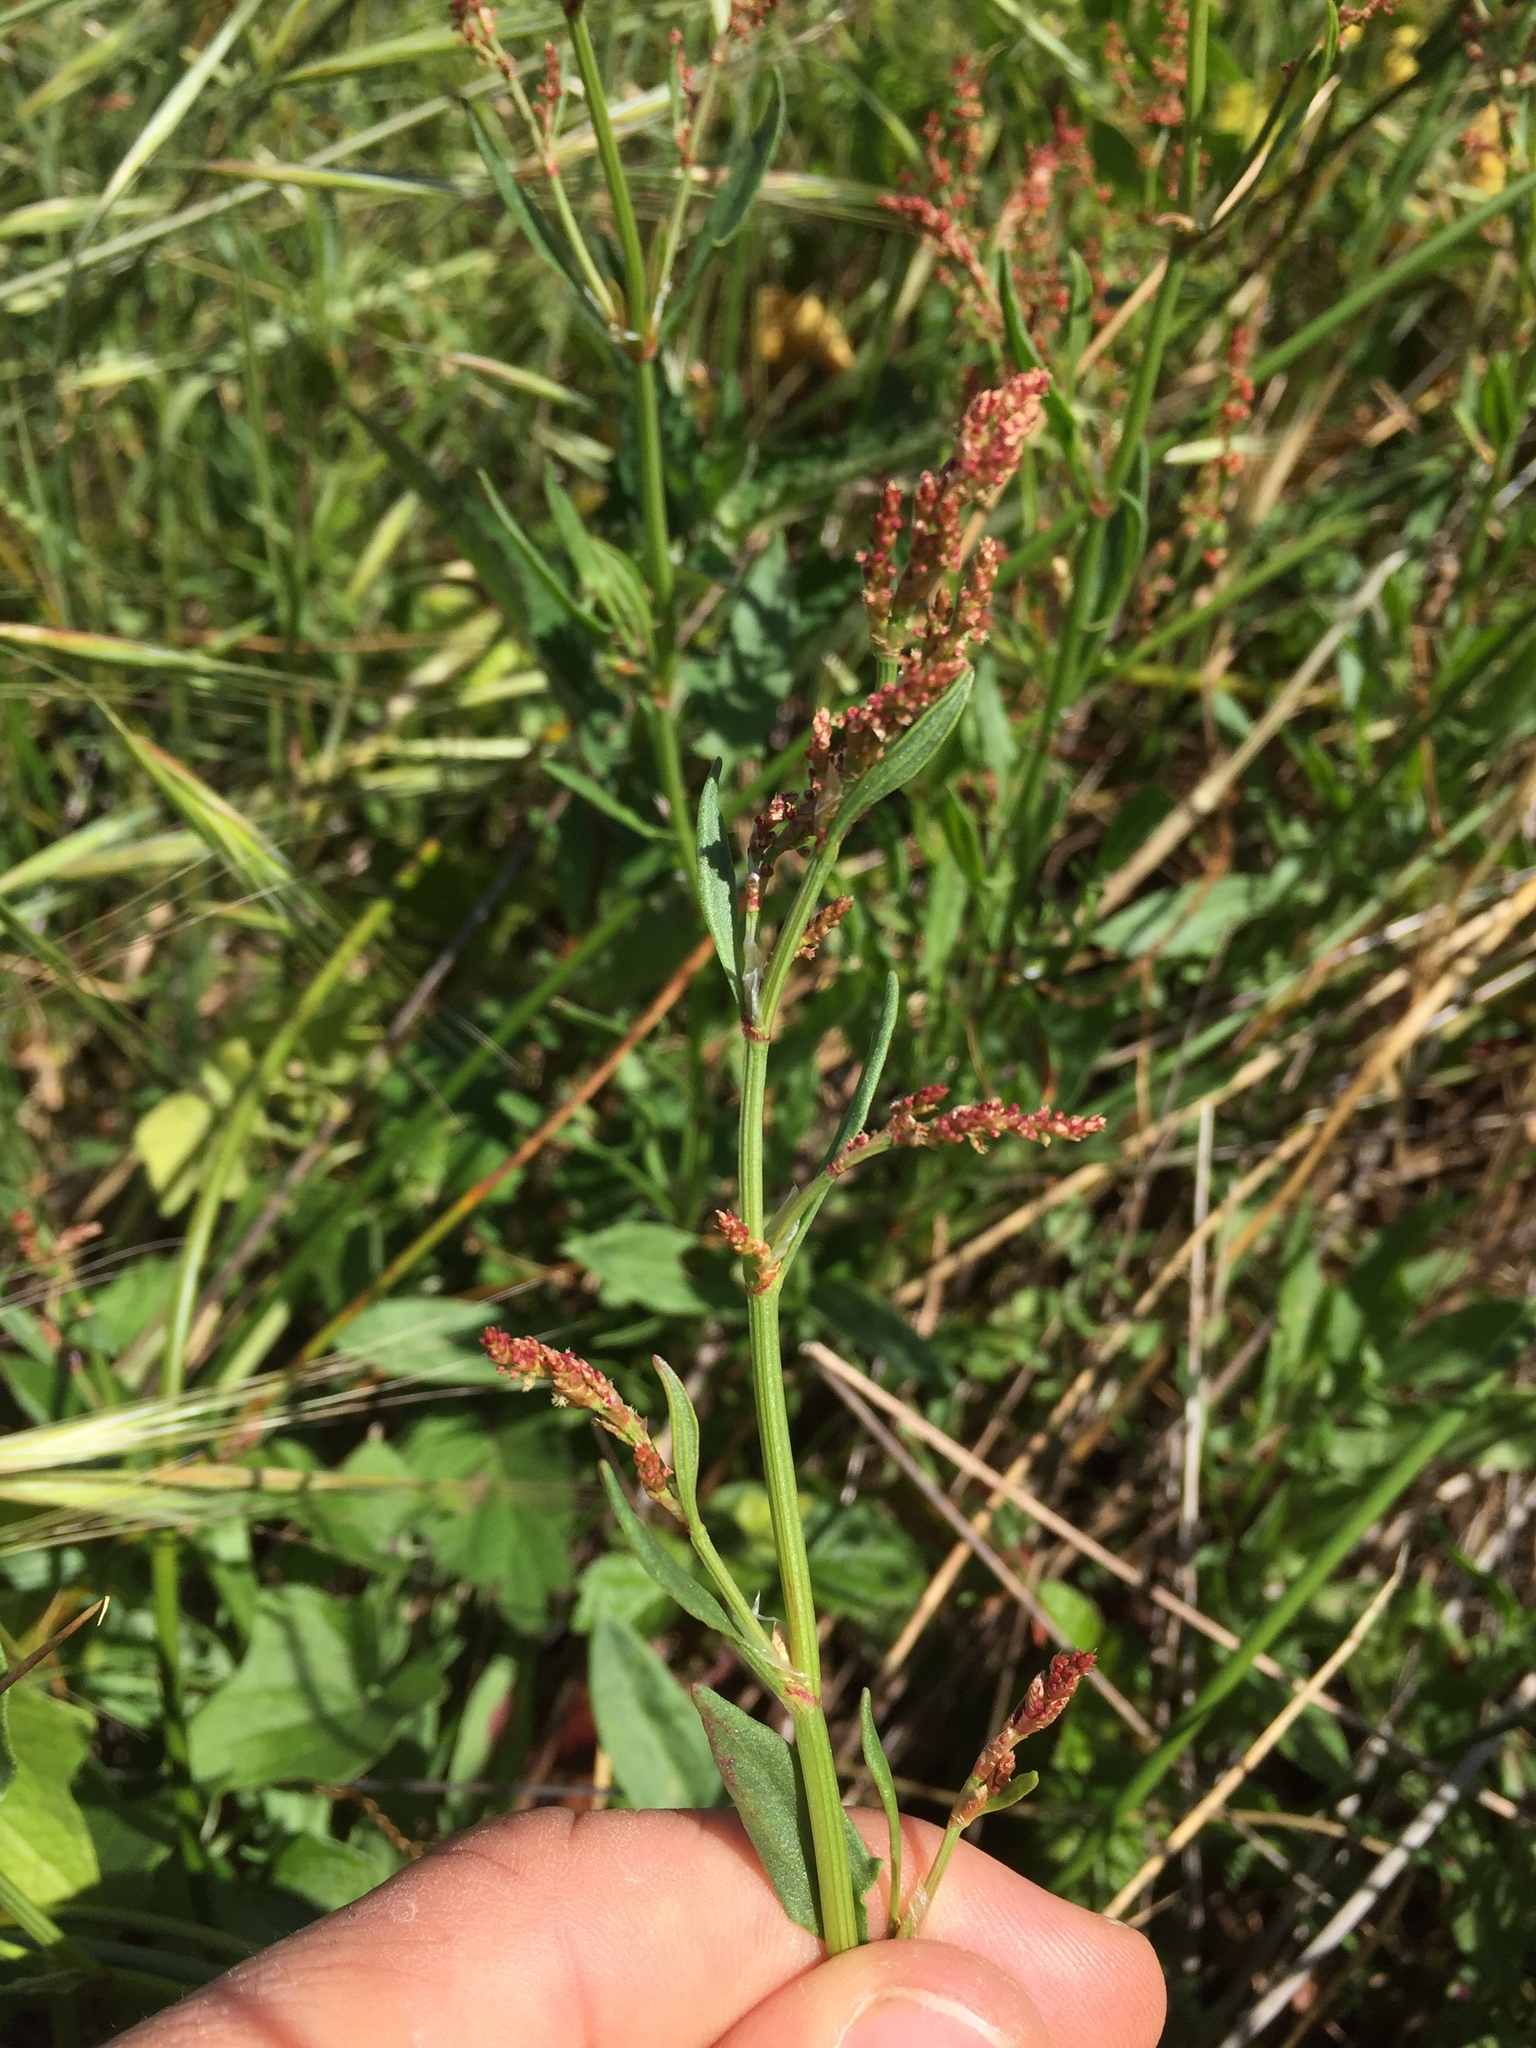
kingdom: Plantae
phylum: Tracheophyta
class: Magnoliopsida
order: Caryophyllales
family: Polygonaceae
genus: Rumex
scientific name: Rumex acetosella
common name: Common sheep sorrel
